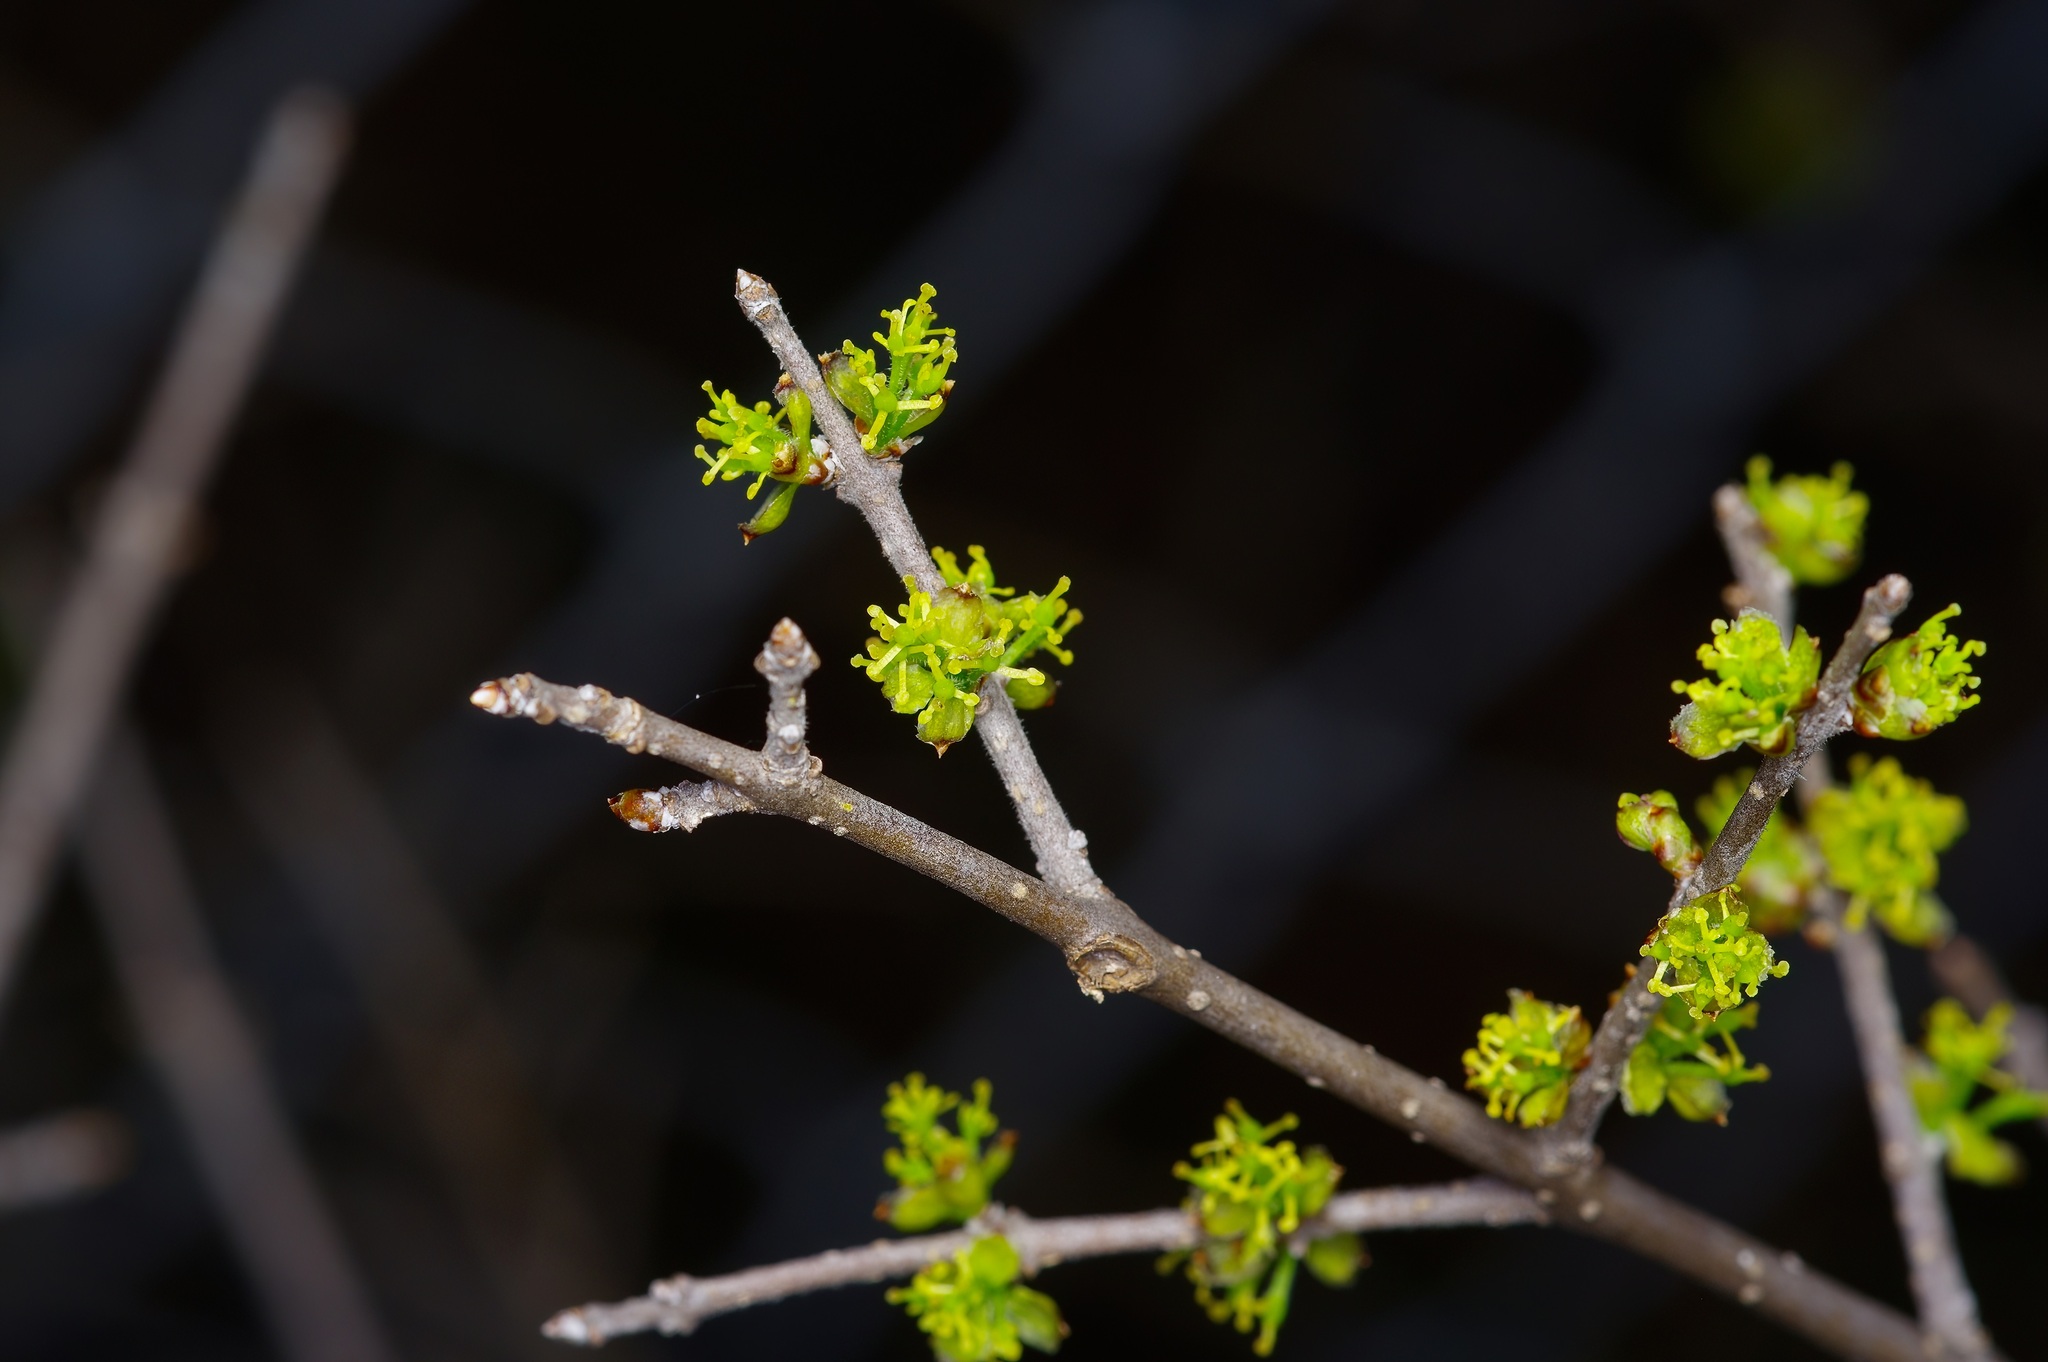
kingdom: Plantae
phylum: Tracheophyta
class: Magnoliopsida
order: Lamiales
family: Oleaceae
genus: Forestiera
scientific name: Forestiera pubescens
